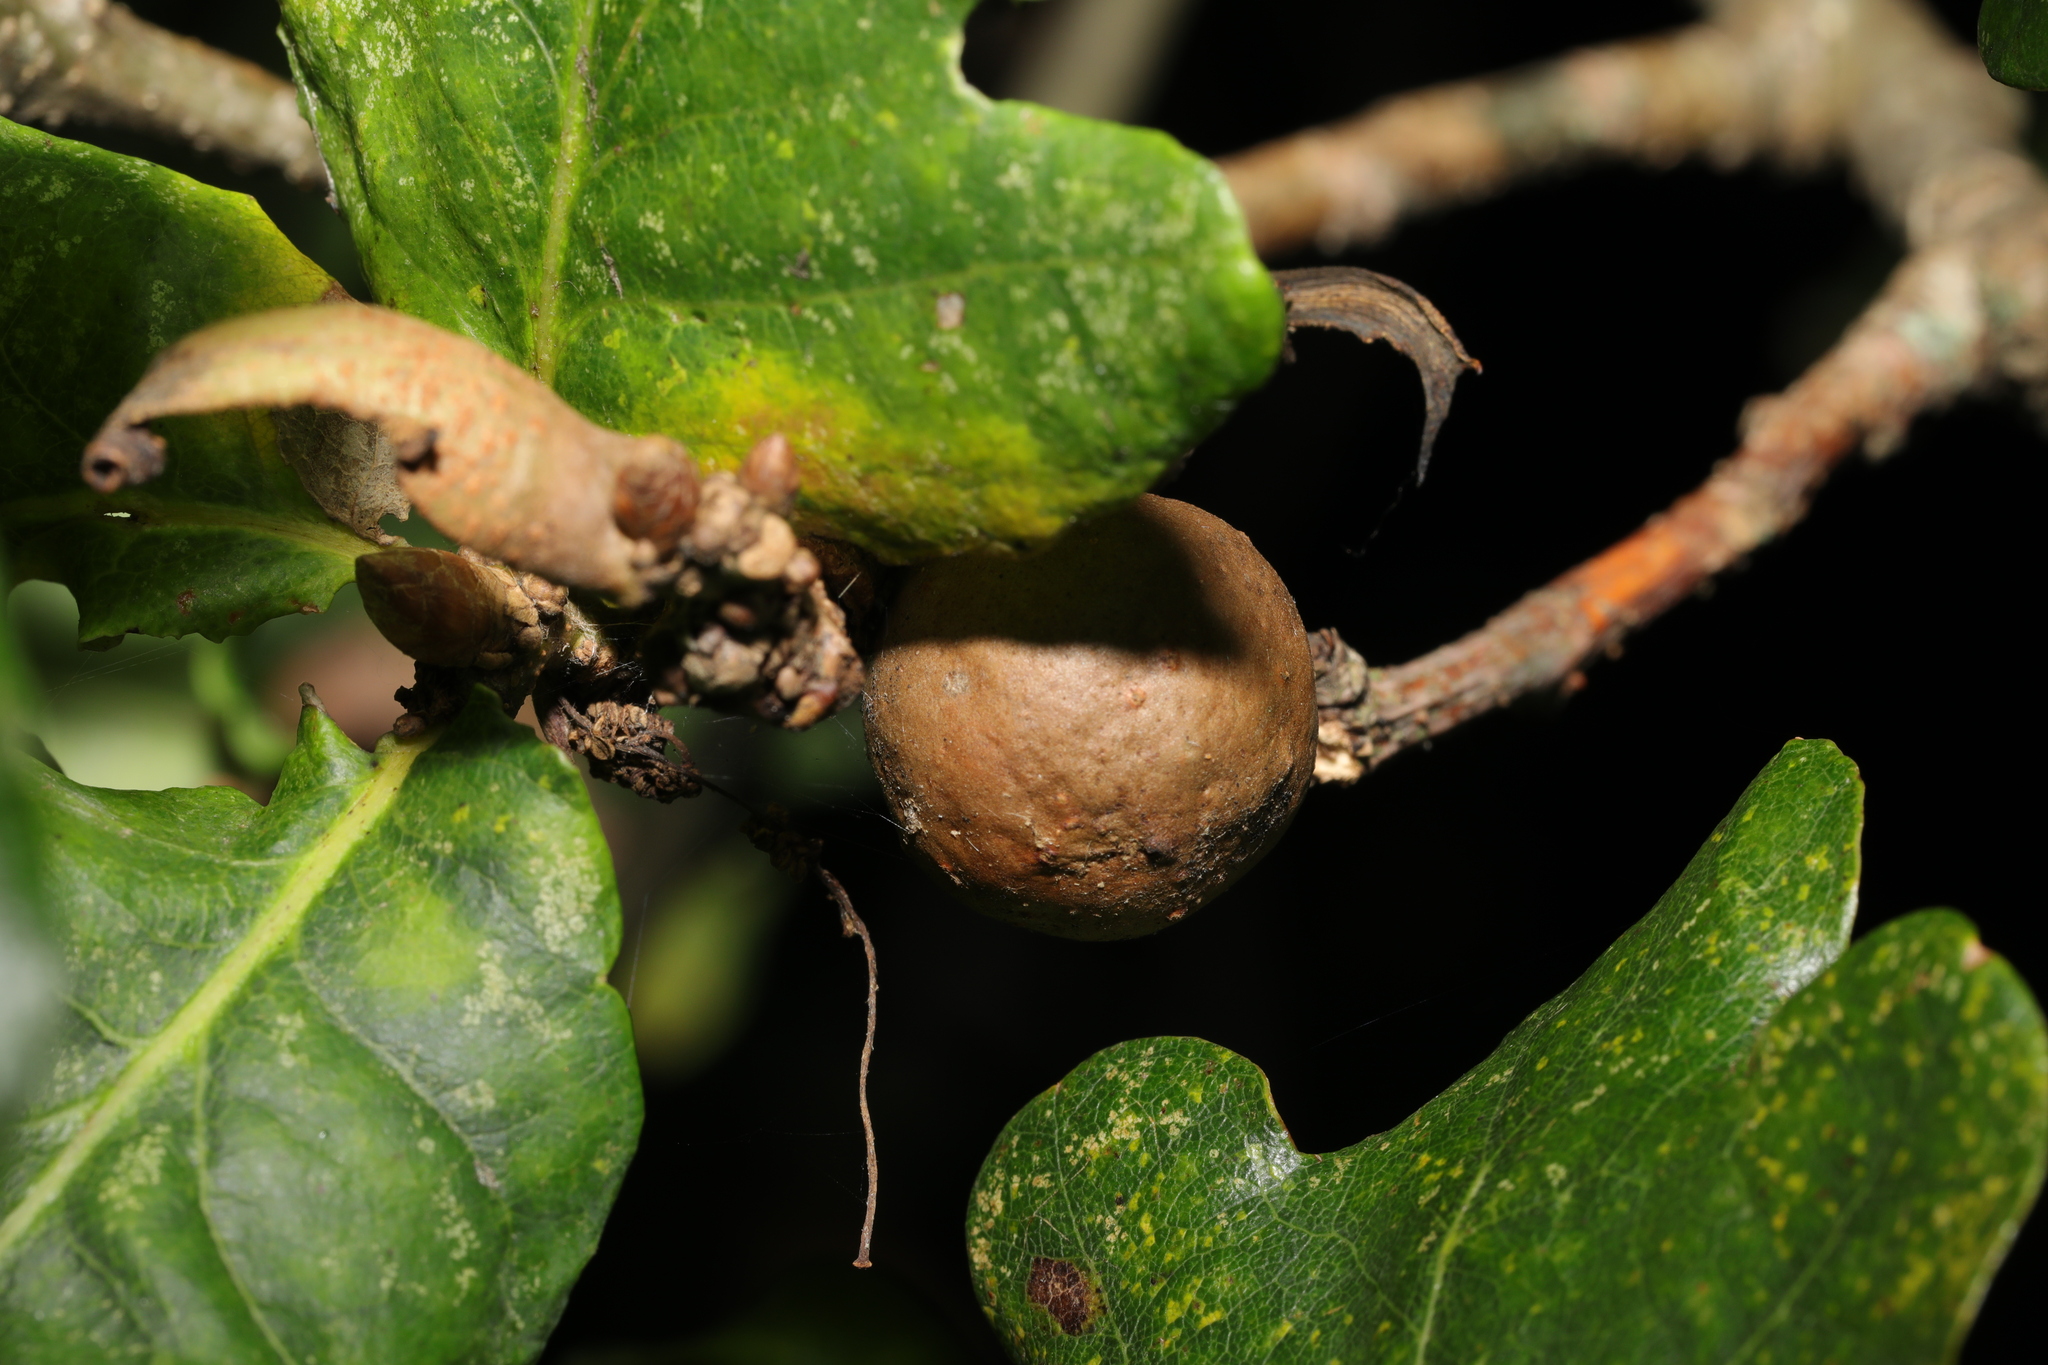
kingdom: Animalia
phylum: Arthropoda
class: Insecta
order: Hymenoptera
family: Cynipidae
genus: Andricus
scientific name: Andricus kollari
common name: Marble gall
